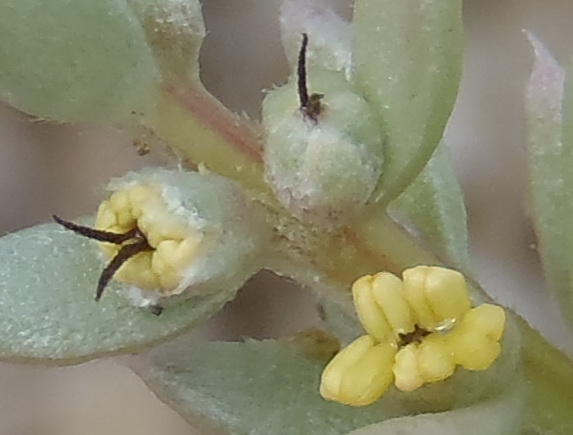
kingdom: Plantae
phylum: Tracheophyta
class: Magnoliopsida
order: Caryophyllales
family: Amaranthaceae
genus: Chenolea
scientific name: Chenolea diffusa
